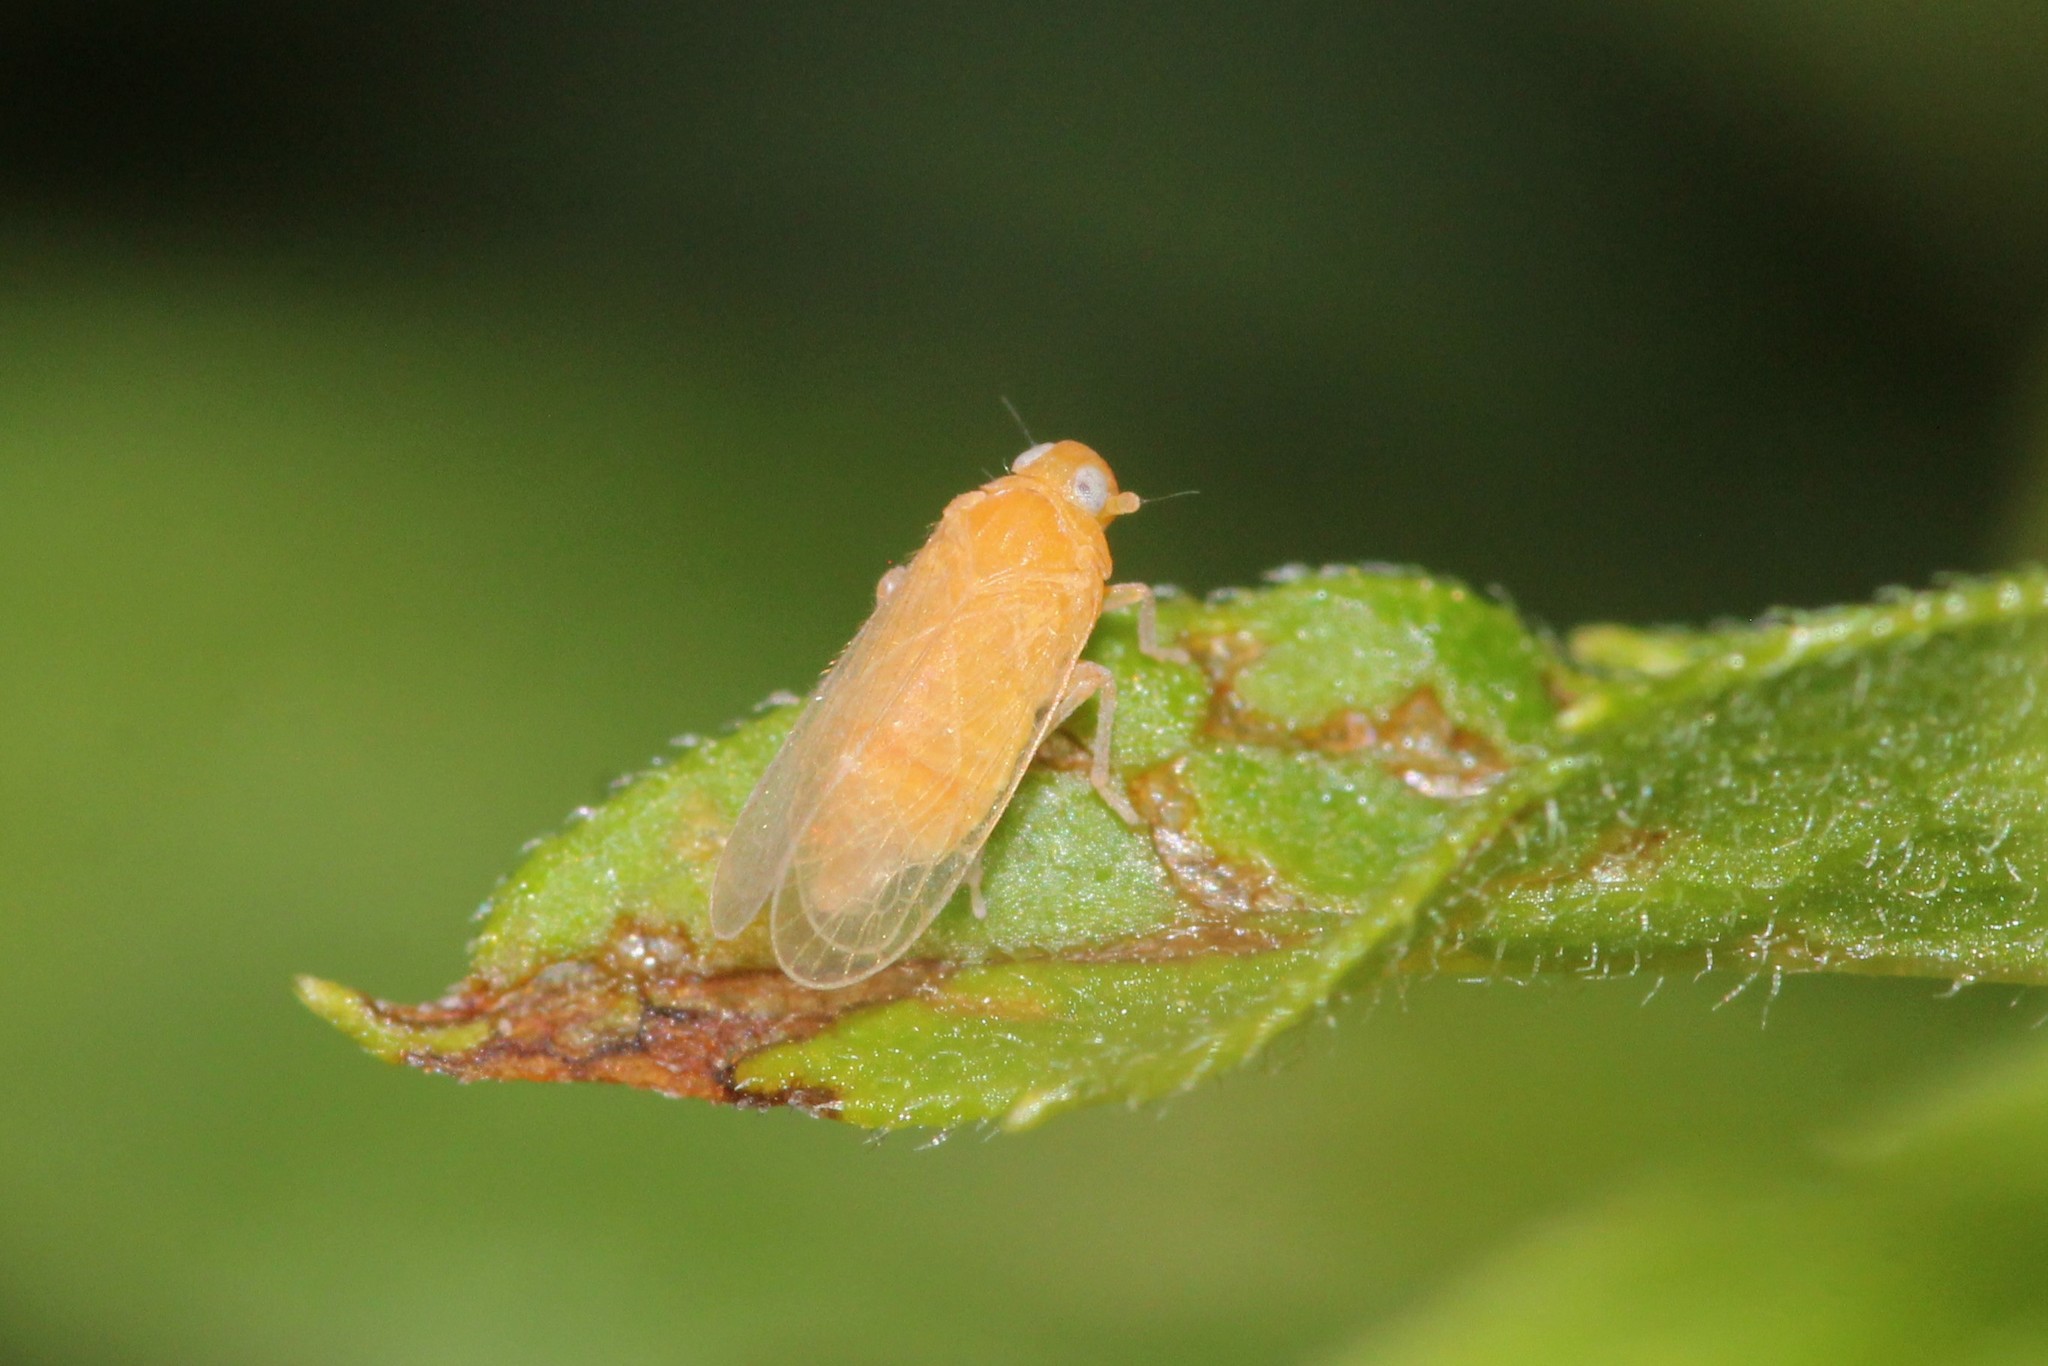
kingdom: Animalia
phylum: Arthropoda
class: Insecta
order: Hemiptera
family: Cixiidae
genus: Haplaxius
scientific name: Haplaxius fulvus
